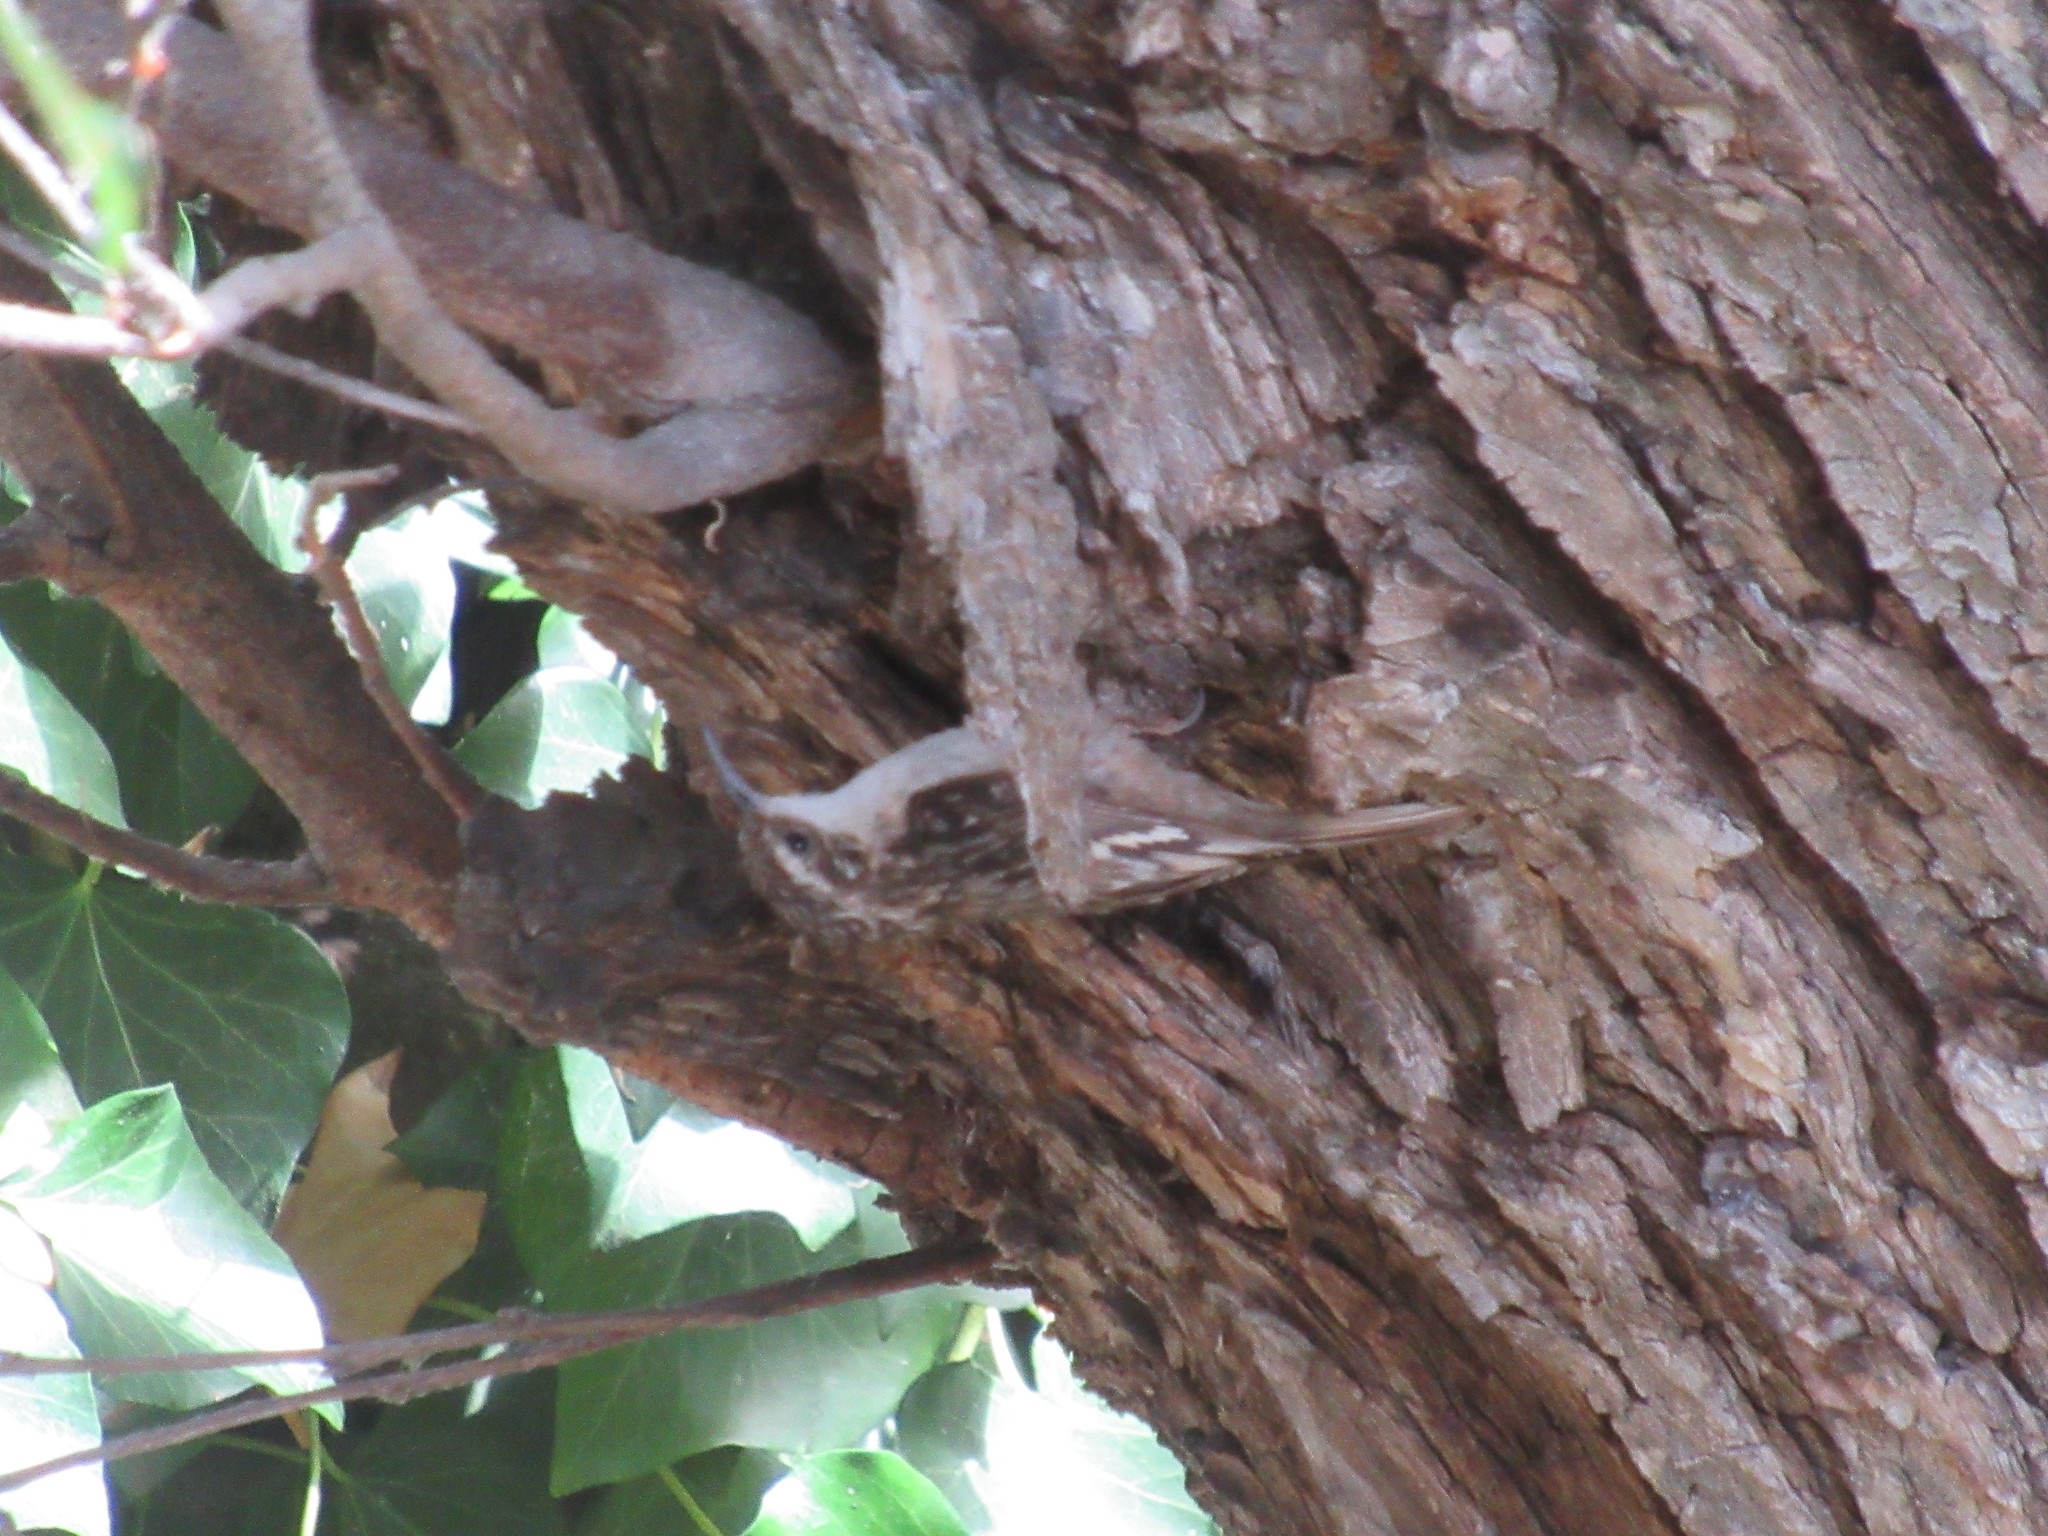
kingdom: Animalia
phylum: Chordata
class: Aves
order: Passeriformes
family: Certhiidae
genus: Certhia
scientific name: Certhia americana
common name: Brown creeper
